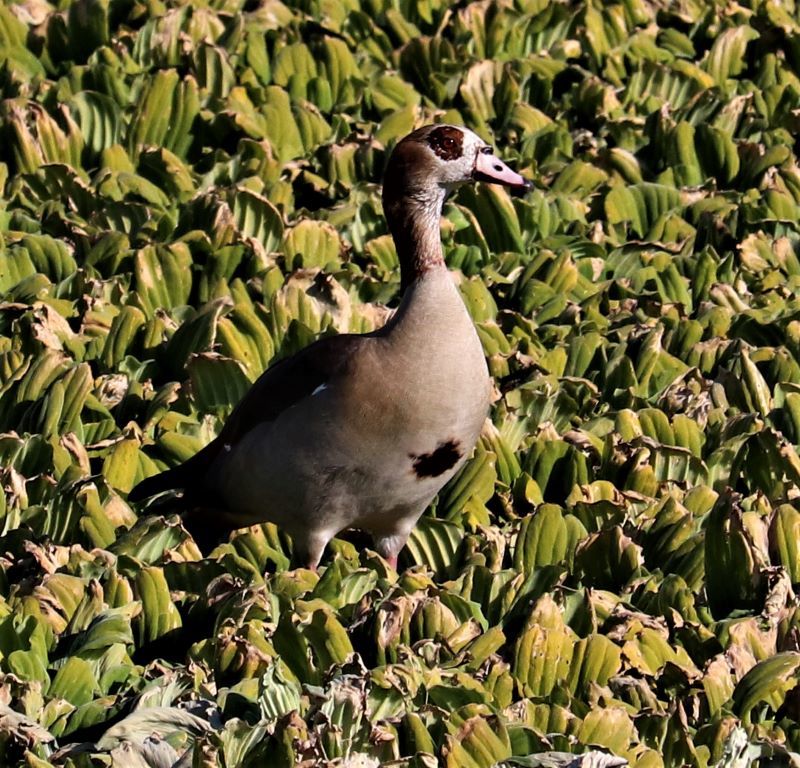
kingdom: Animalia
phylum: Chordata
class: Aves
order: Anseriformes
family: Anatidae
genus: Alopochen
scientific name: Alopochen aegyptiaca
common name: Egyptian goose
